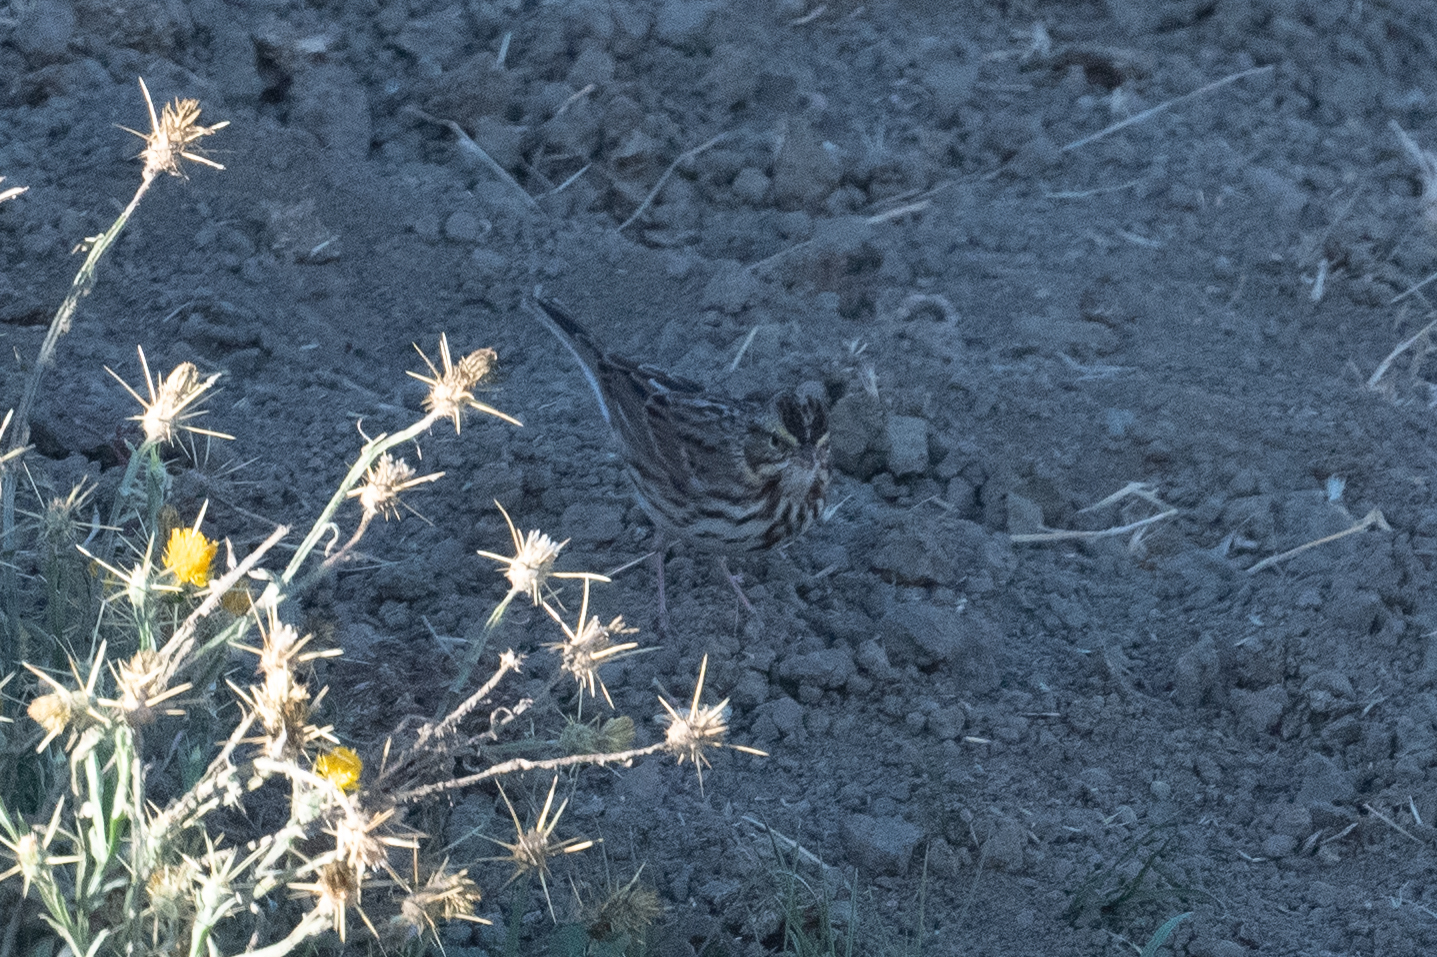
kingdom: Animalia
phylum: Chordata
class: Aves
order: Passeriformes
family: Passerellidae
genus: Passerculus
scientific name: Passerculus sandwichensis
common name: Savannah sparrow
